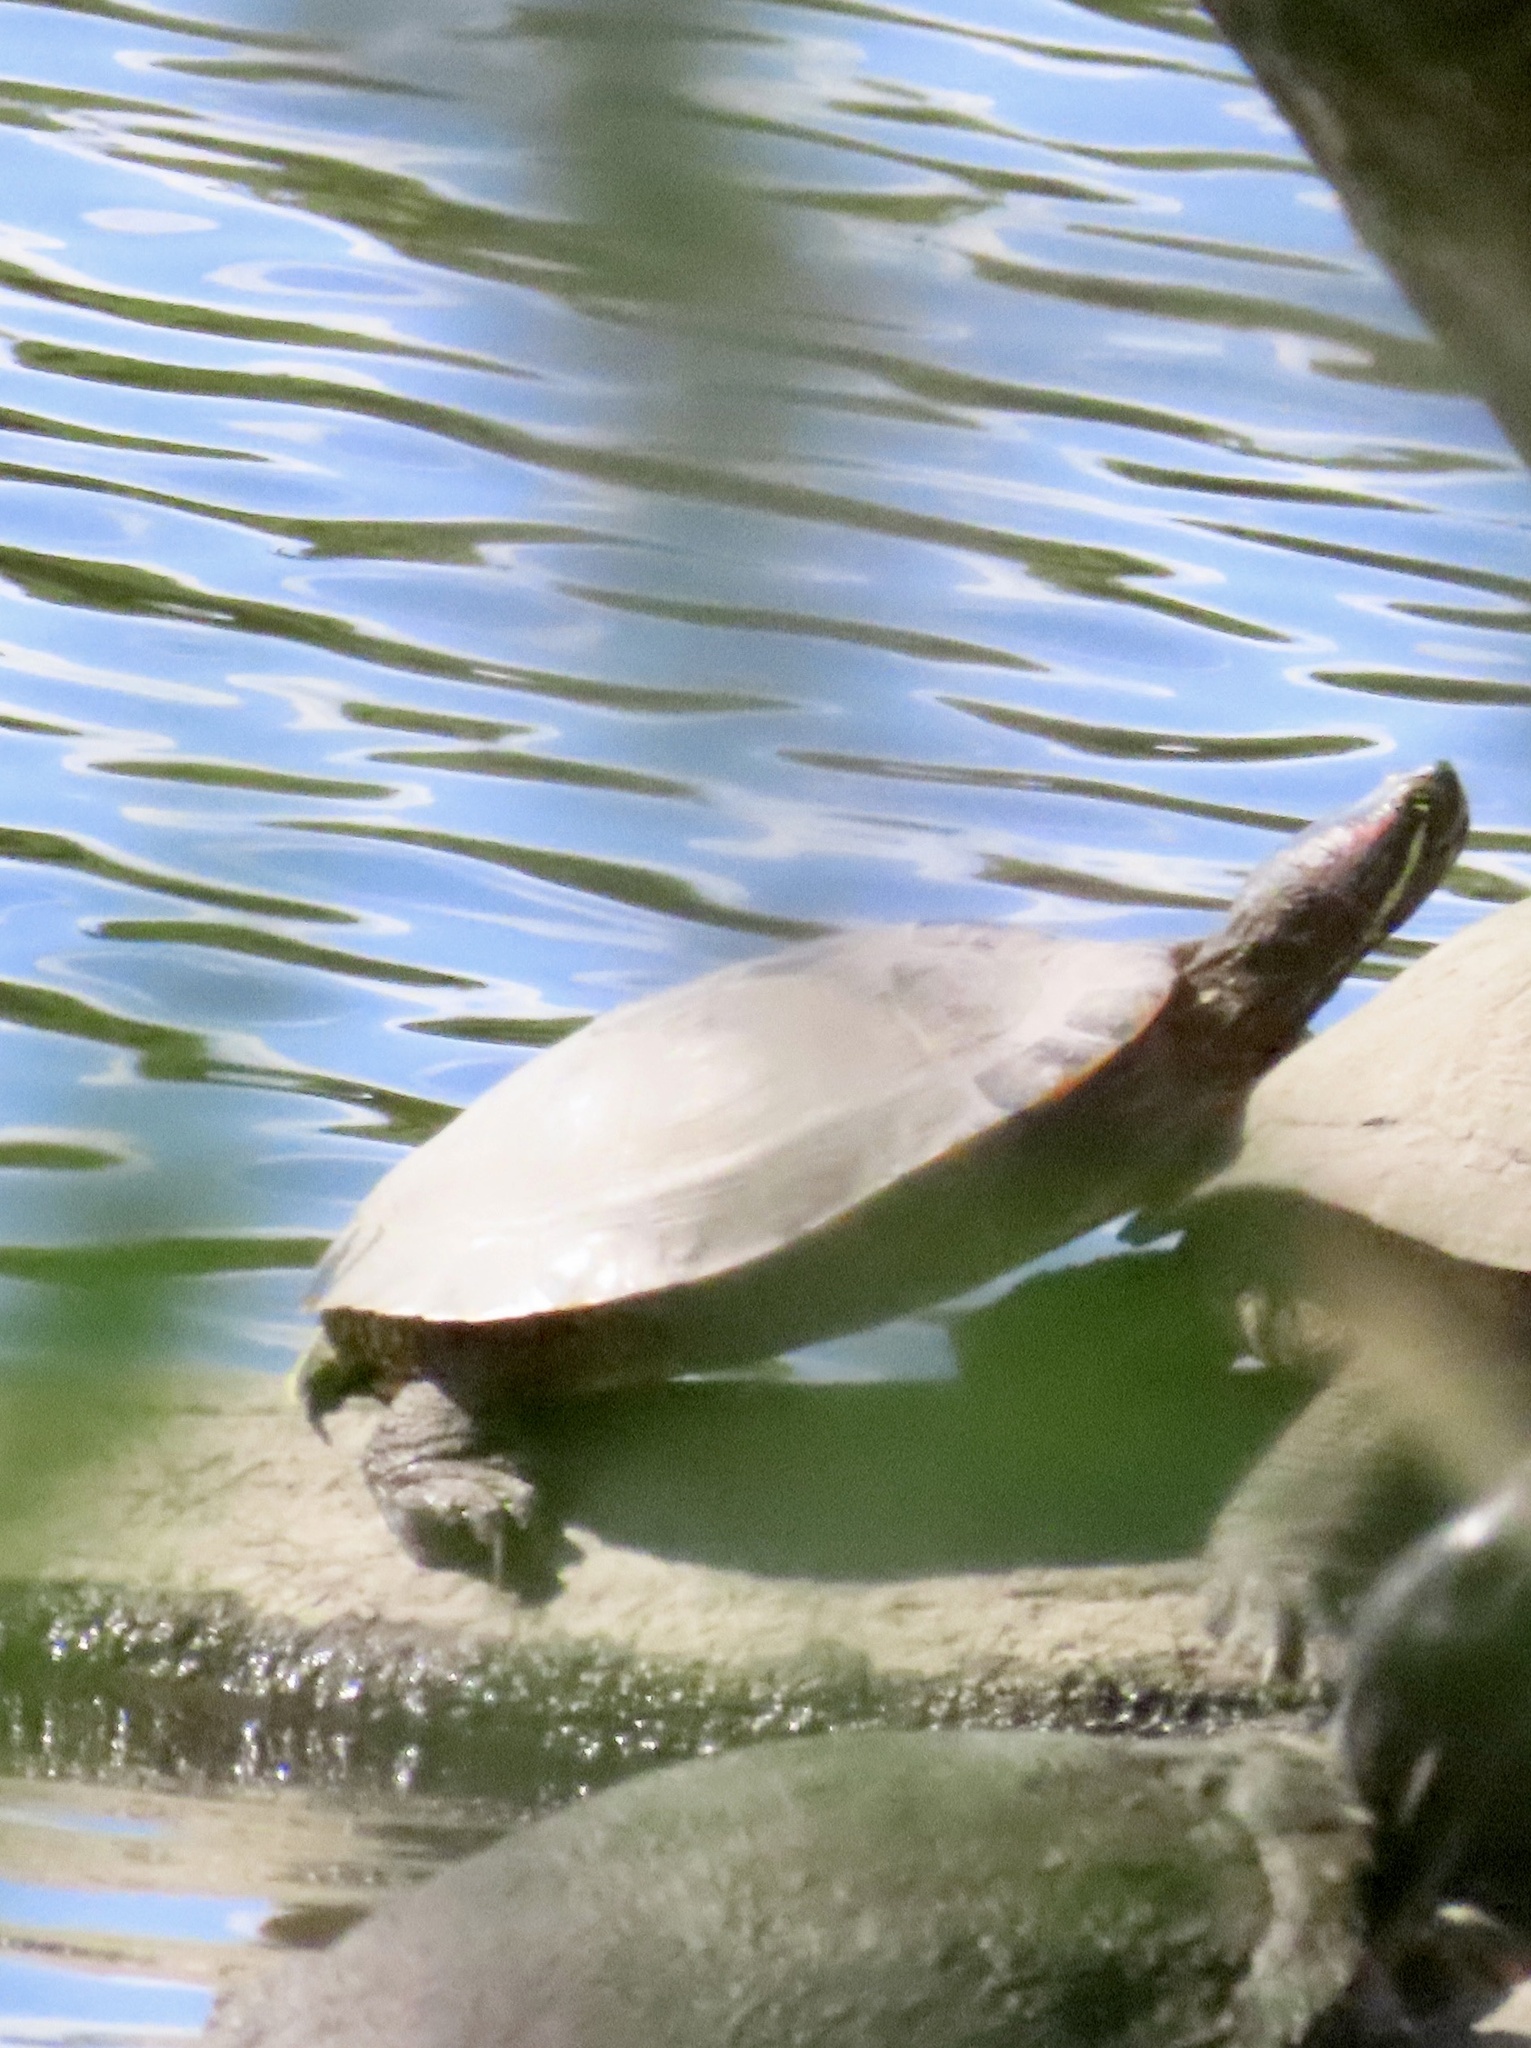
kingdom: Animalia
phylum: Chordata
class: Testudines
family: Emydidae
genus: Trachemys
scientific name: Trachemys scripta
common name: Slider
